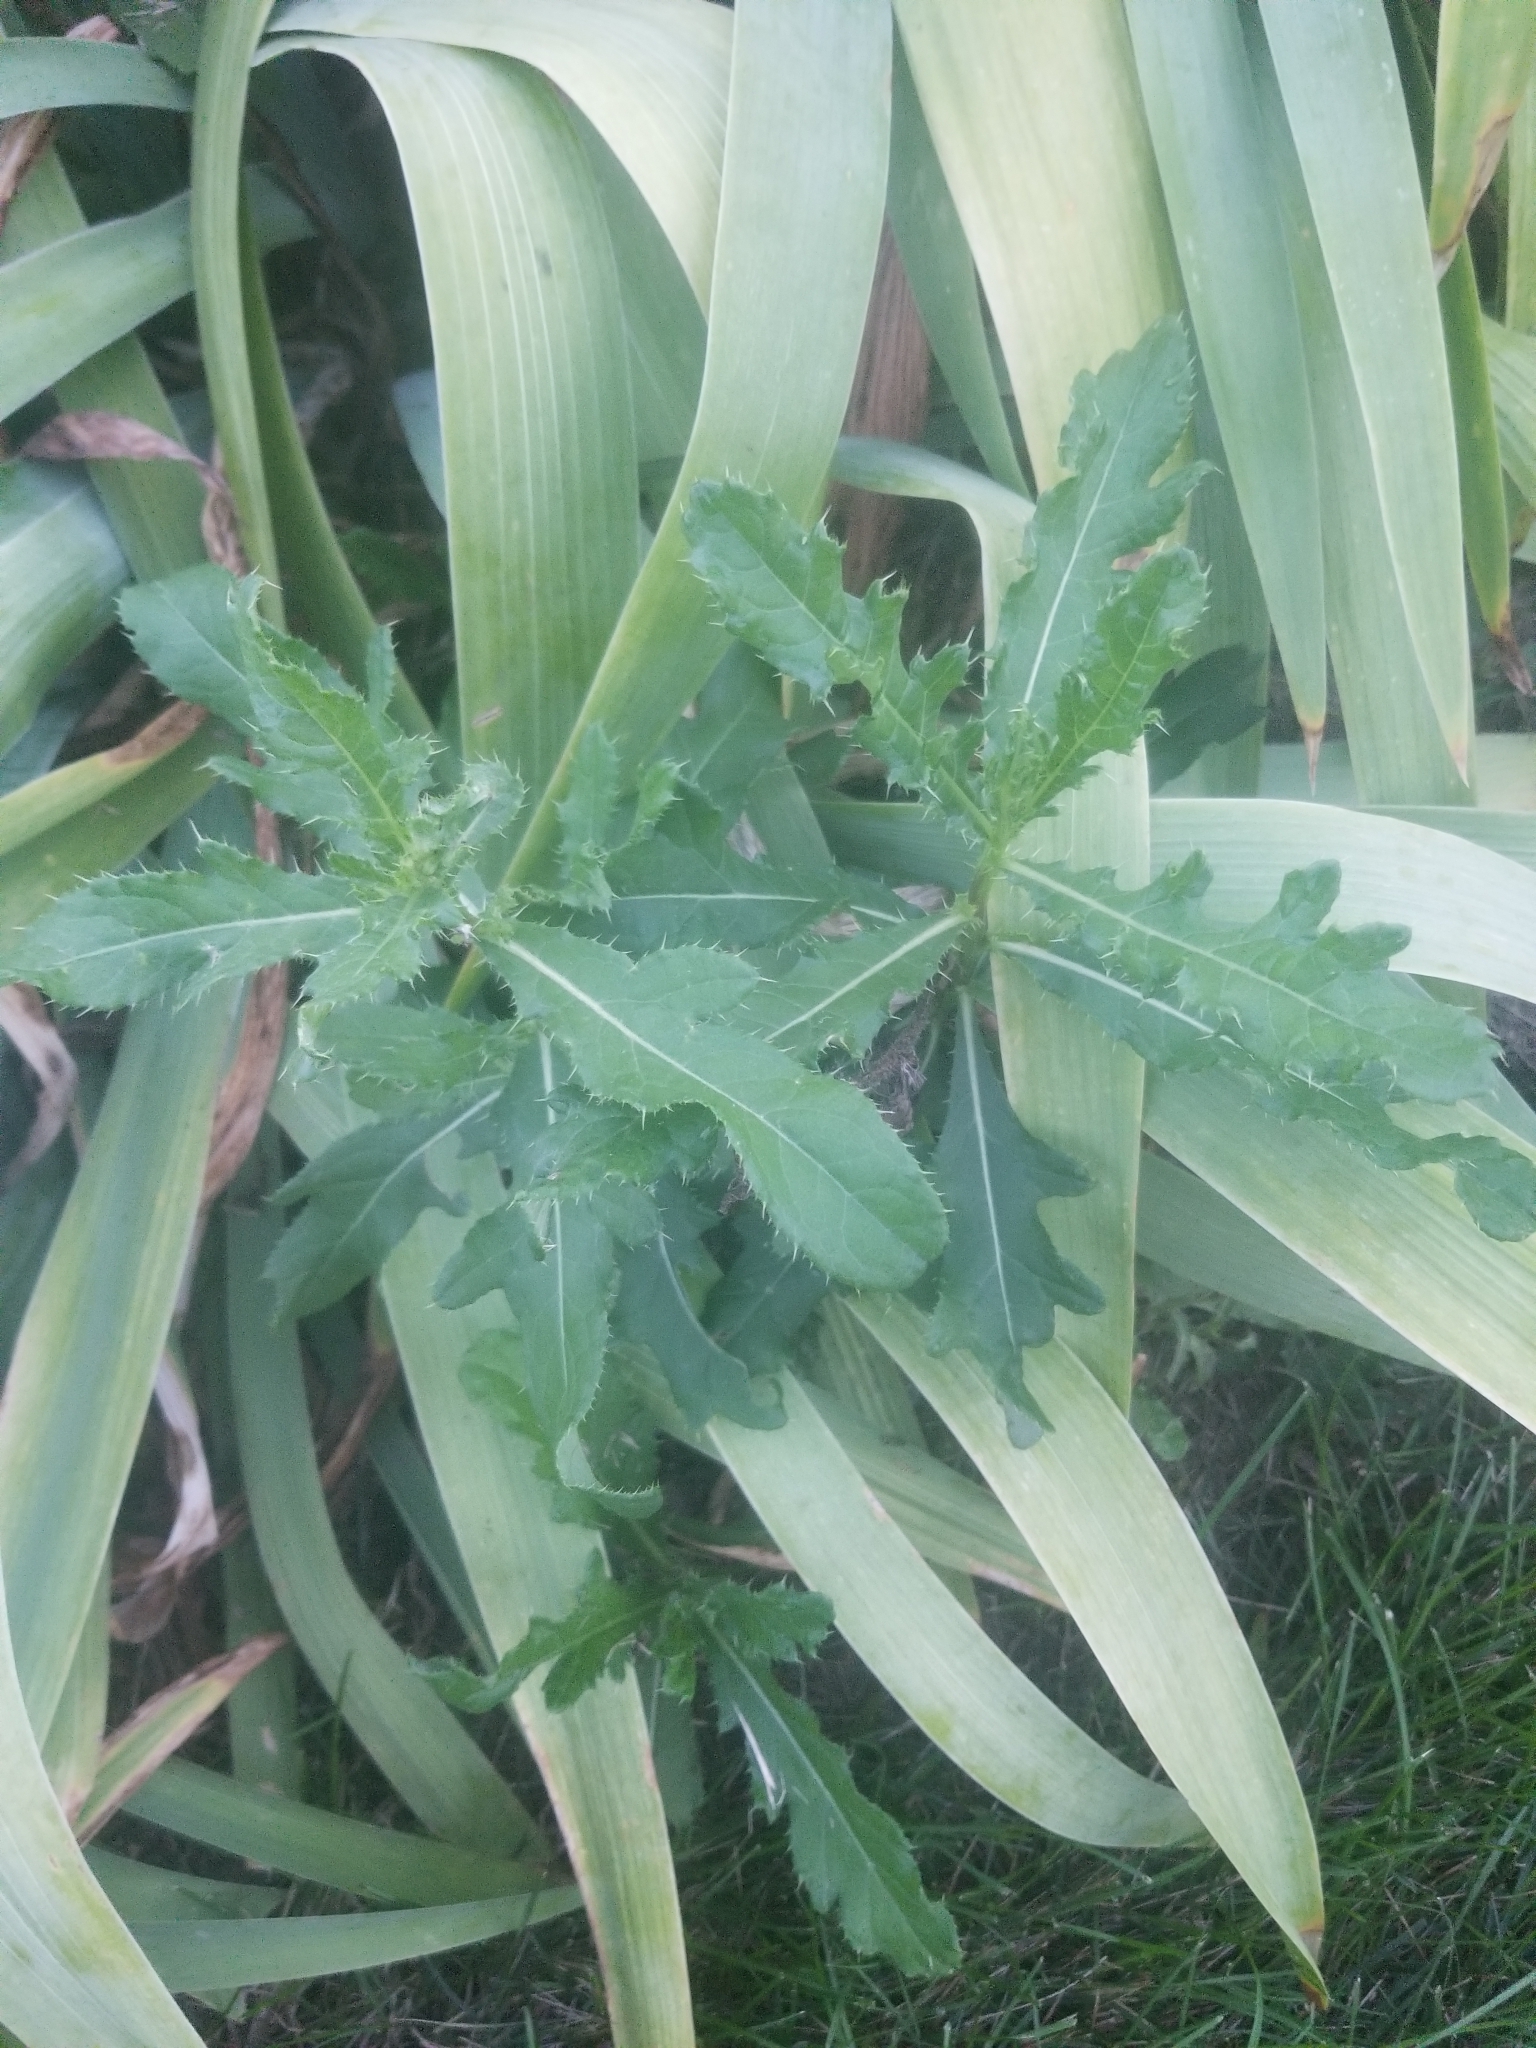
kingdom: Plantae
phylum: Tracheophyta
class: Magnoliopsida
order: Asterales
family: Asteraceae
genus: Cirsium
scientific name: Cirsium arvense
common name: Creeping thistle
